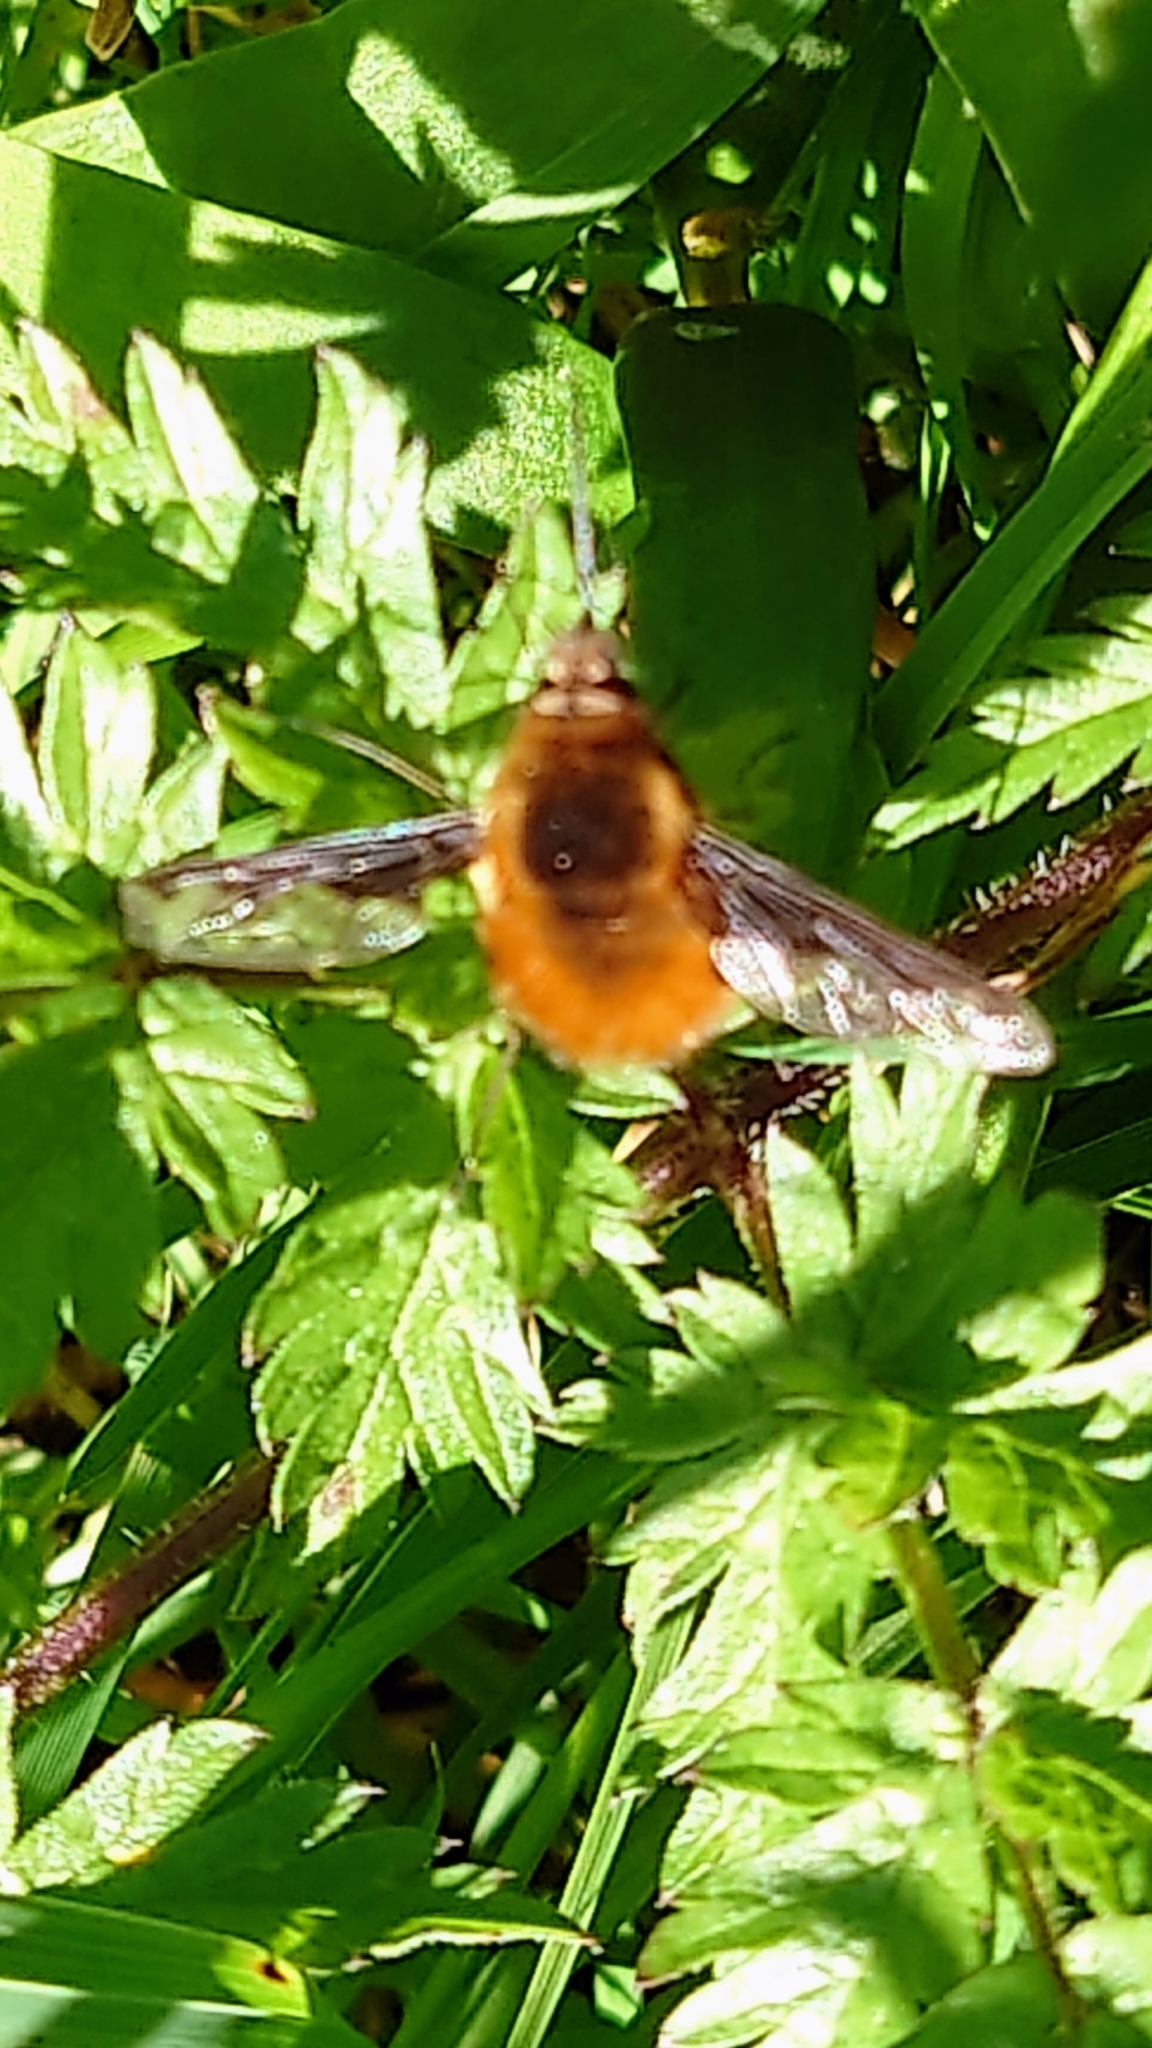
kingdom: Animalia
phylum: Arthropoda
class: Insecta
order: Diptera
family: Bombyliidae
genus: Bombylius
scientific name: Bombylius major
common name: Bee fly
